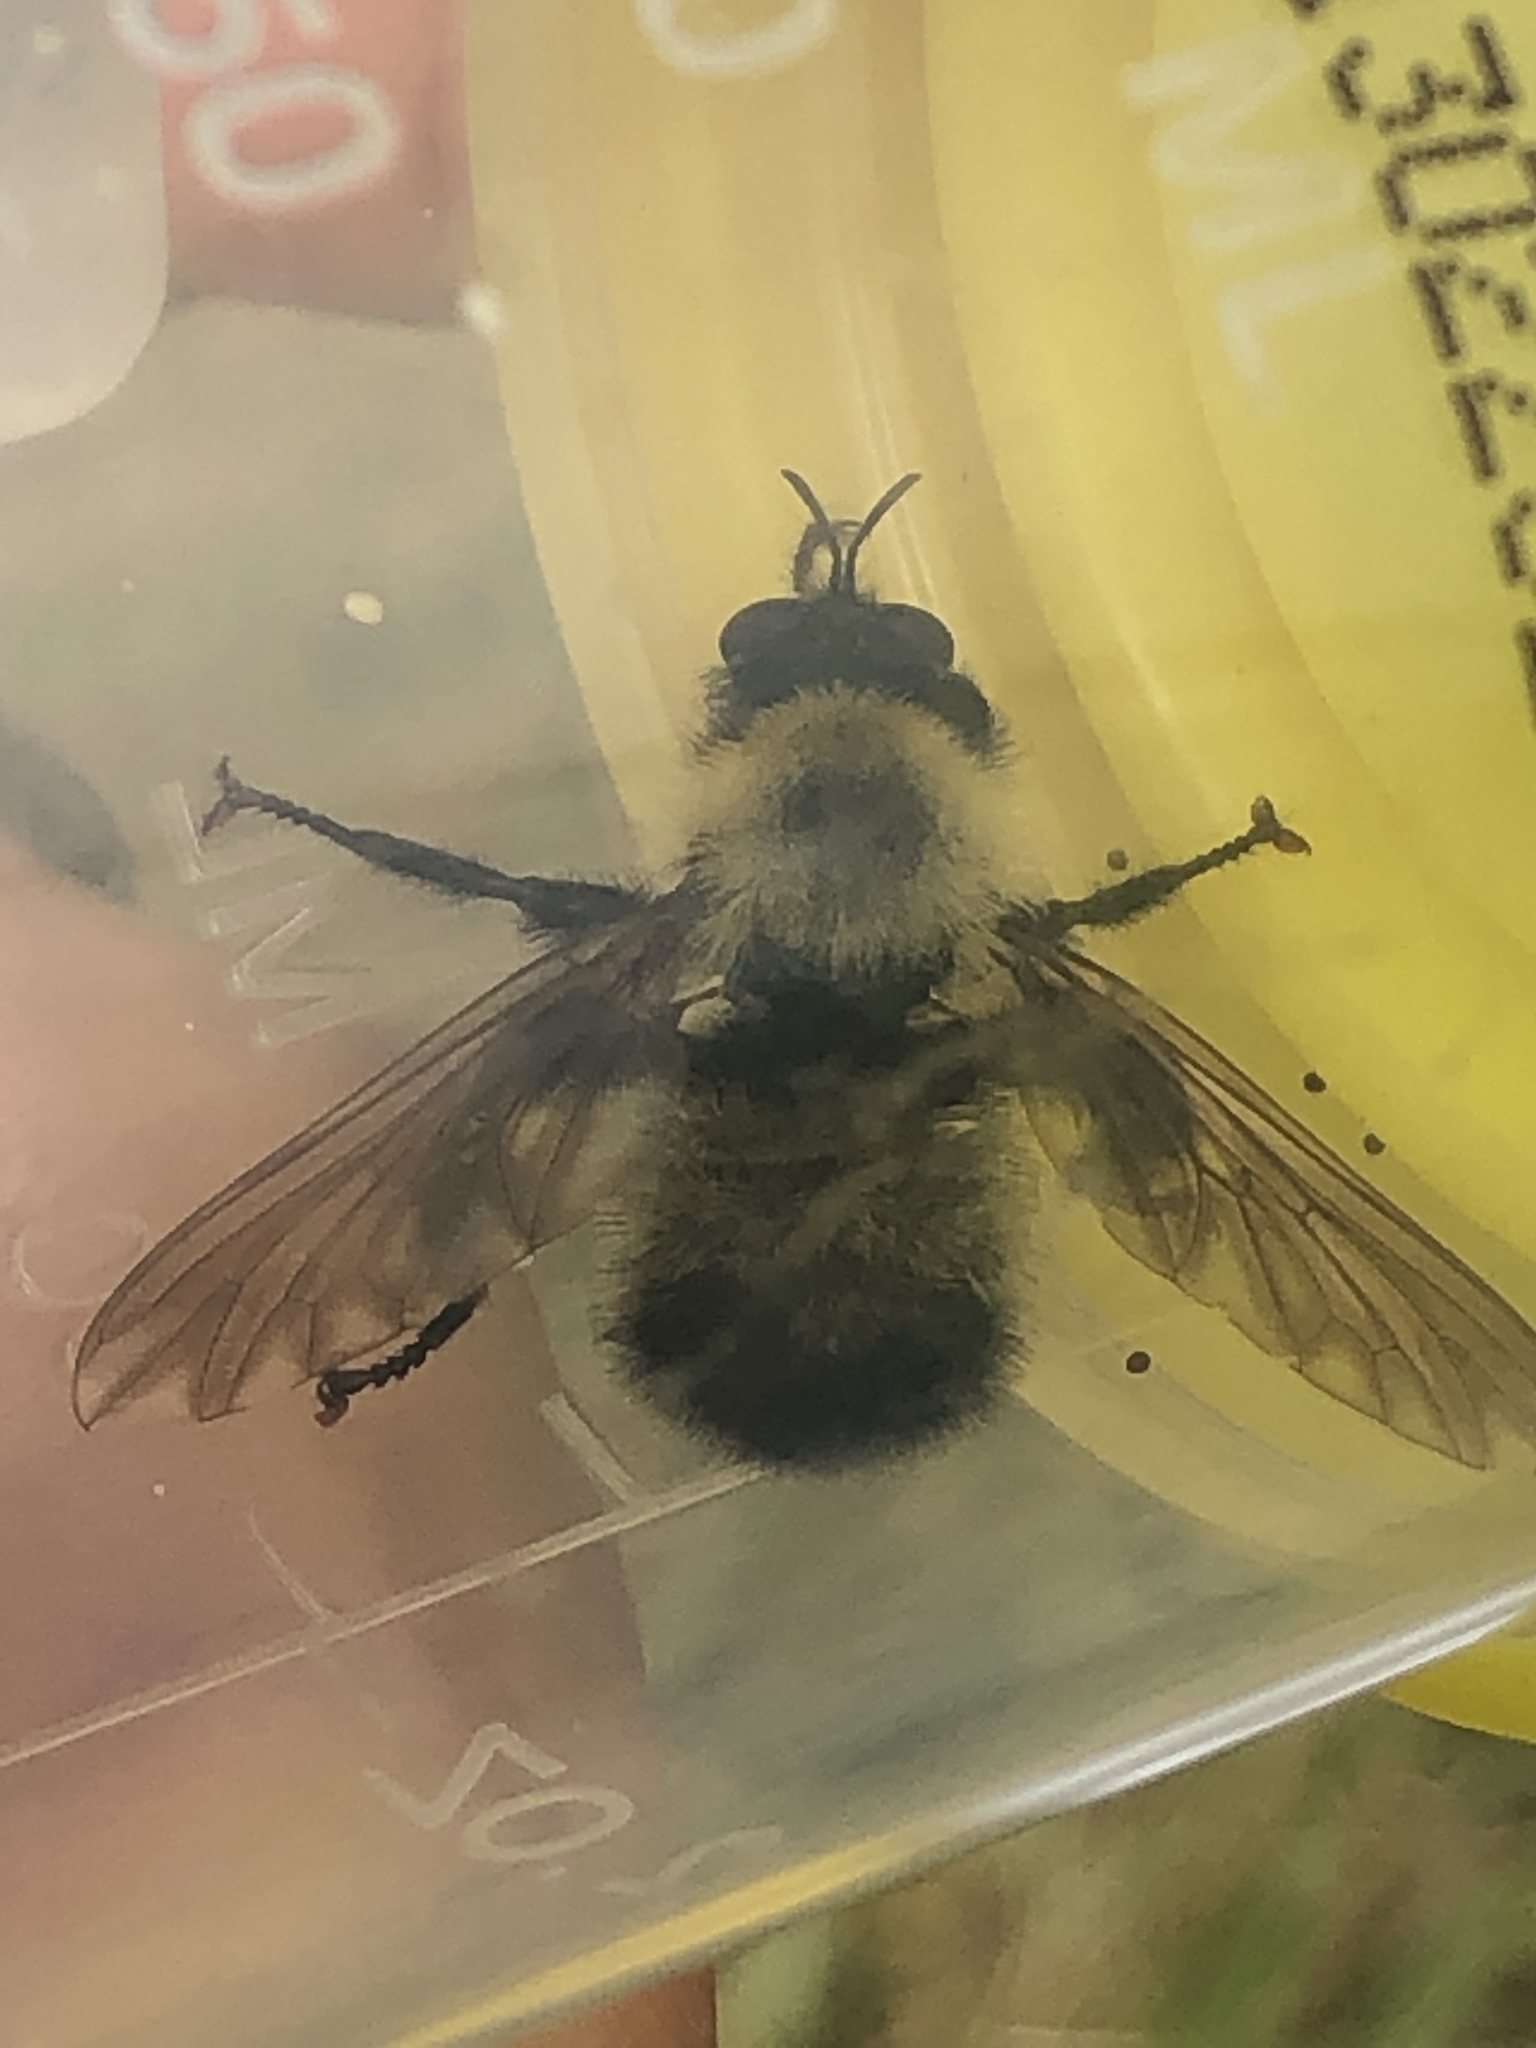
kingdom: Animalia
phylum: Arthropoda
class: Insecta
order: Diptera
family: Asilidae
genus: Laphria
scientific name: Laphria thoracica
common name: Bumble bee mimic robber fly
